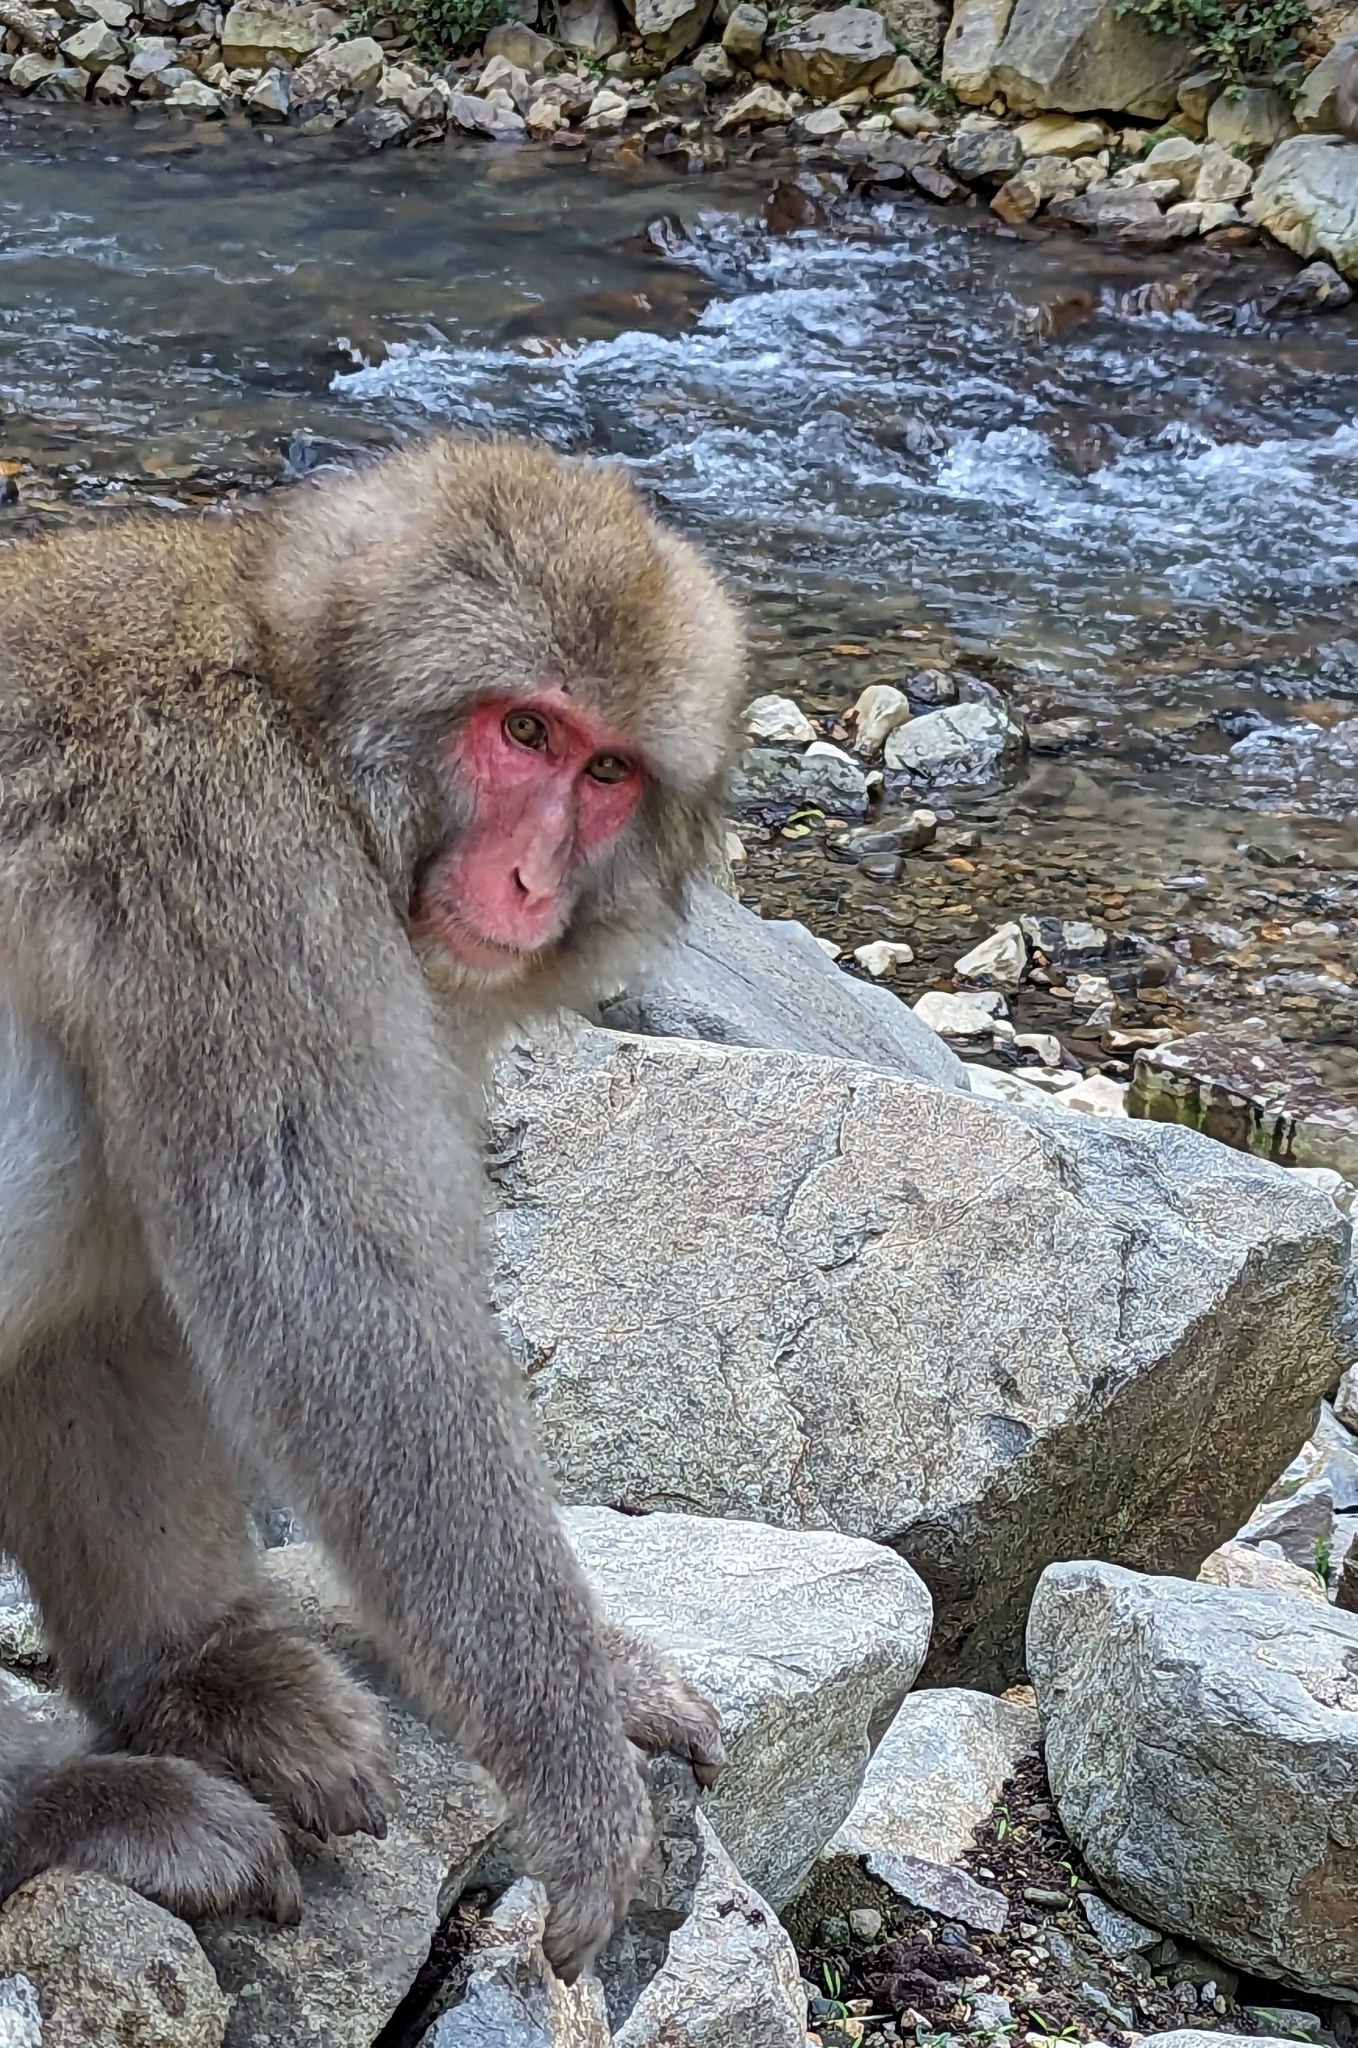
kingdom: Animalia
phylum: Chordata
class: Mammalia
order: Primates
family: Cercopithecidae
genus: Macaca
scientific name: Macaca fuscata
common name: Japanese macaque
